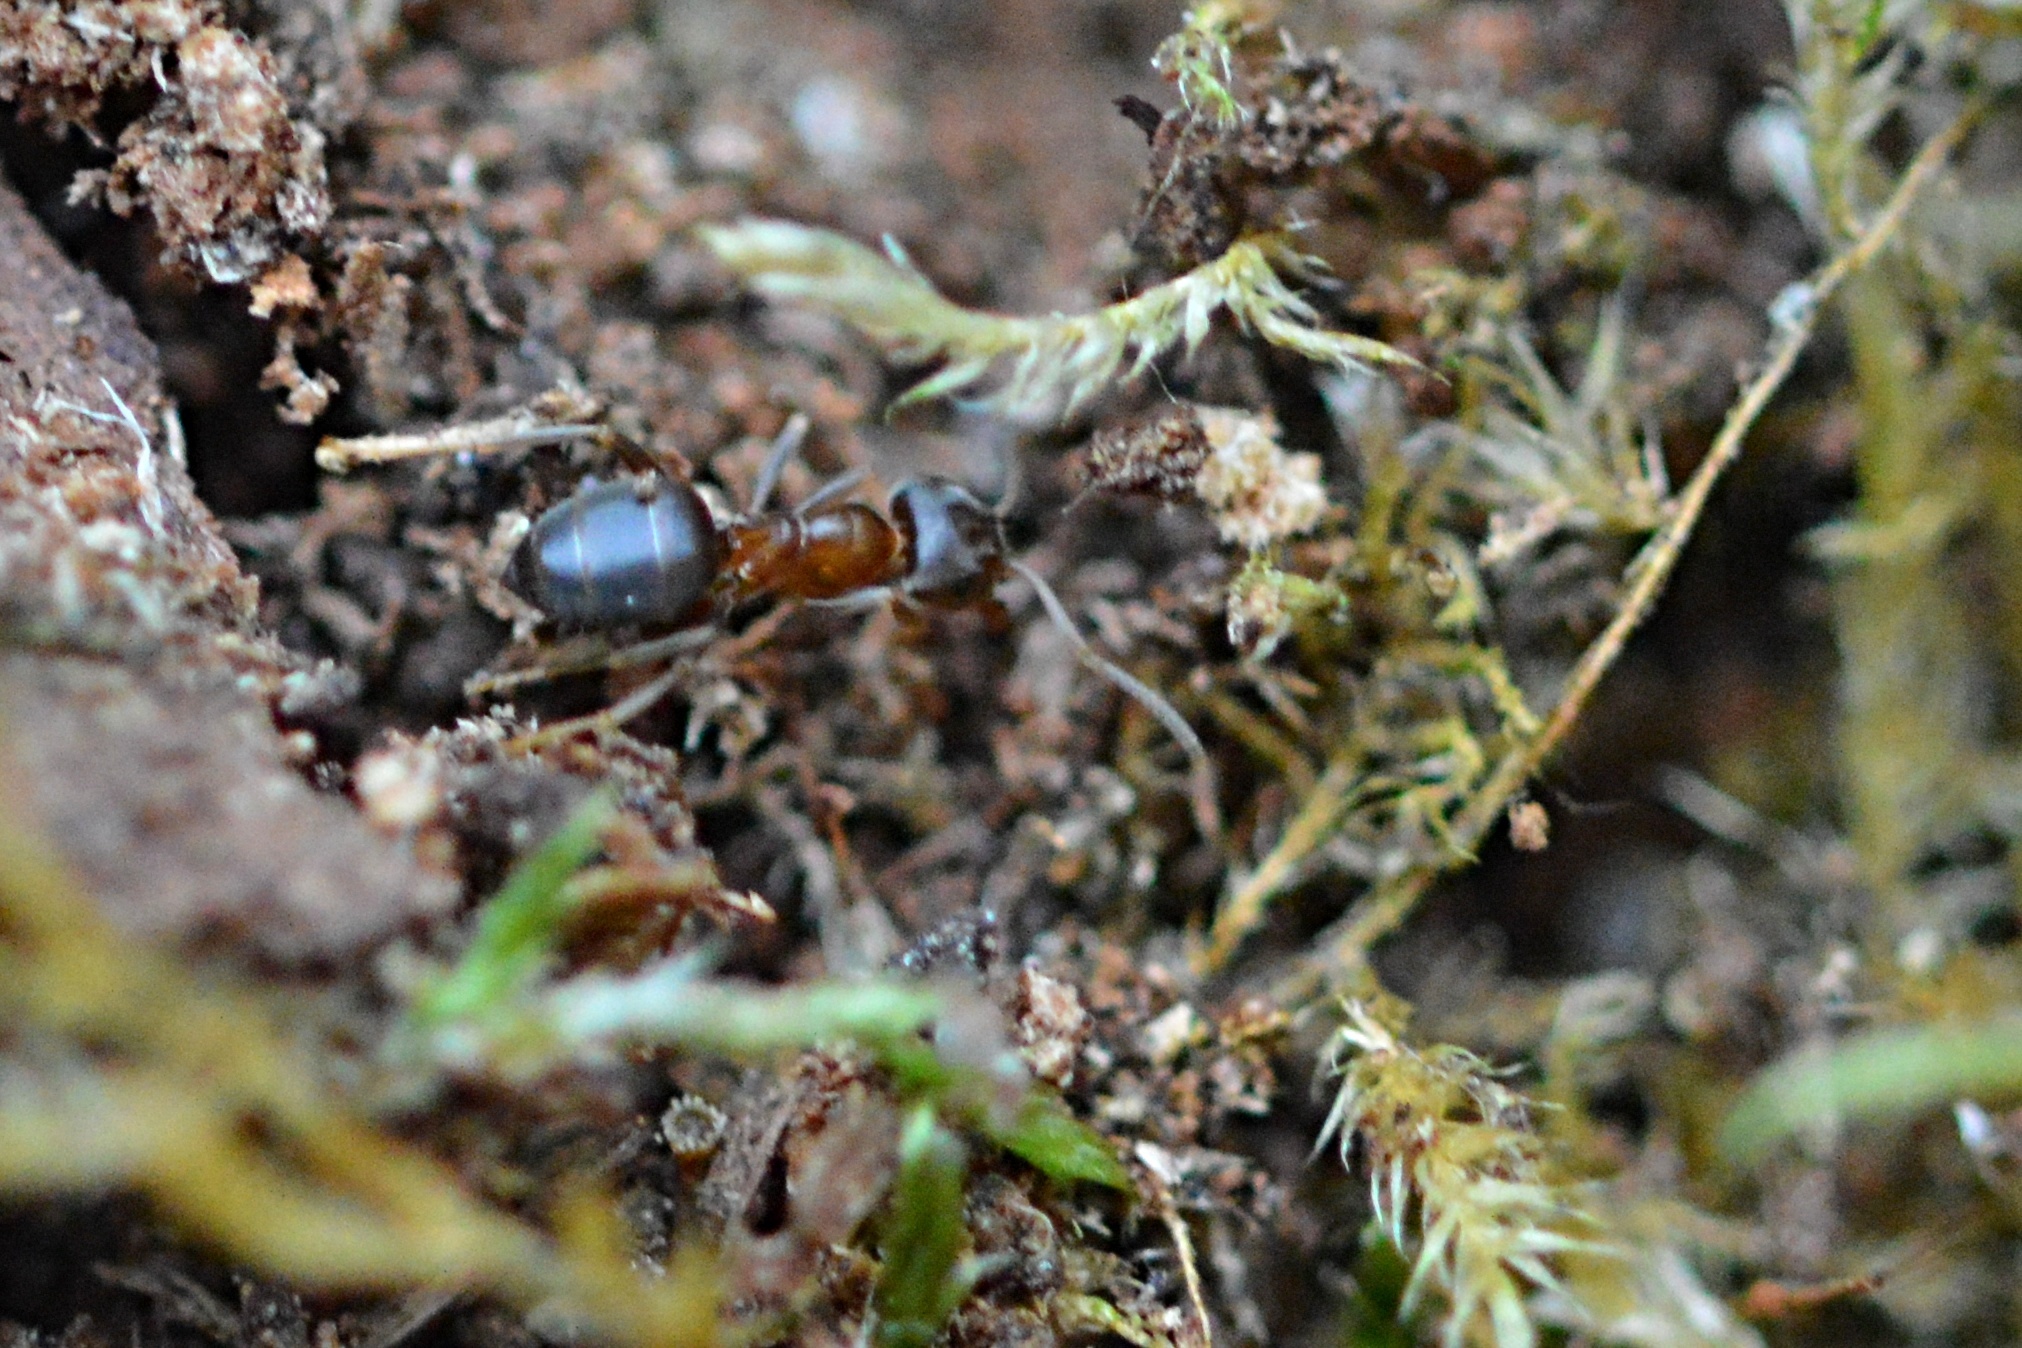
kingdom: Animalia
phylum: Arthropoda
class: Insecta
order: Hymenoptera
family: Formicidae
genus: Lasius
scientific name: Lasius emarginatus
